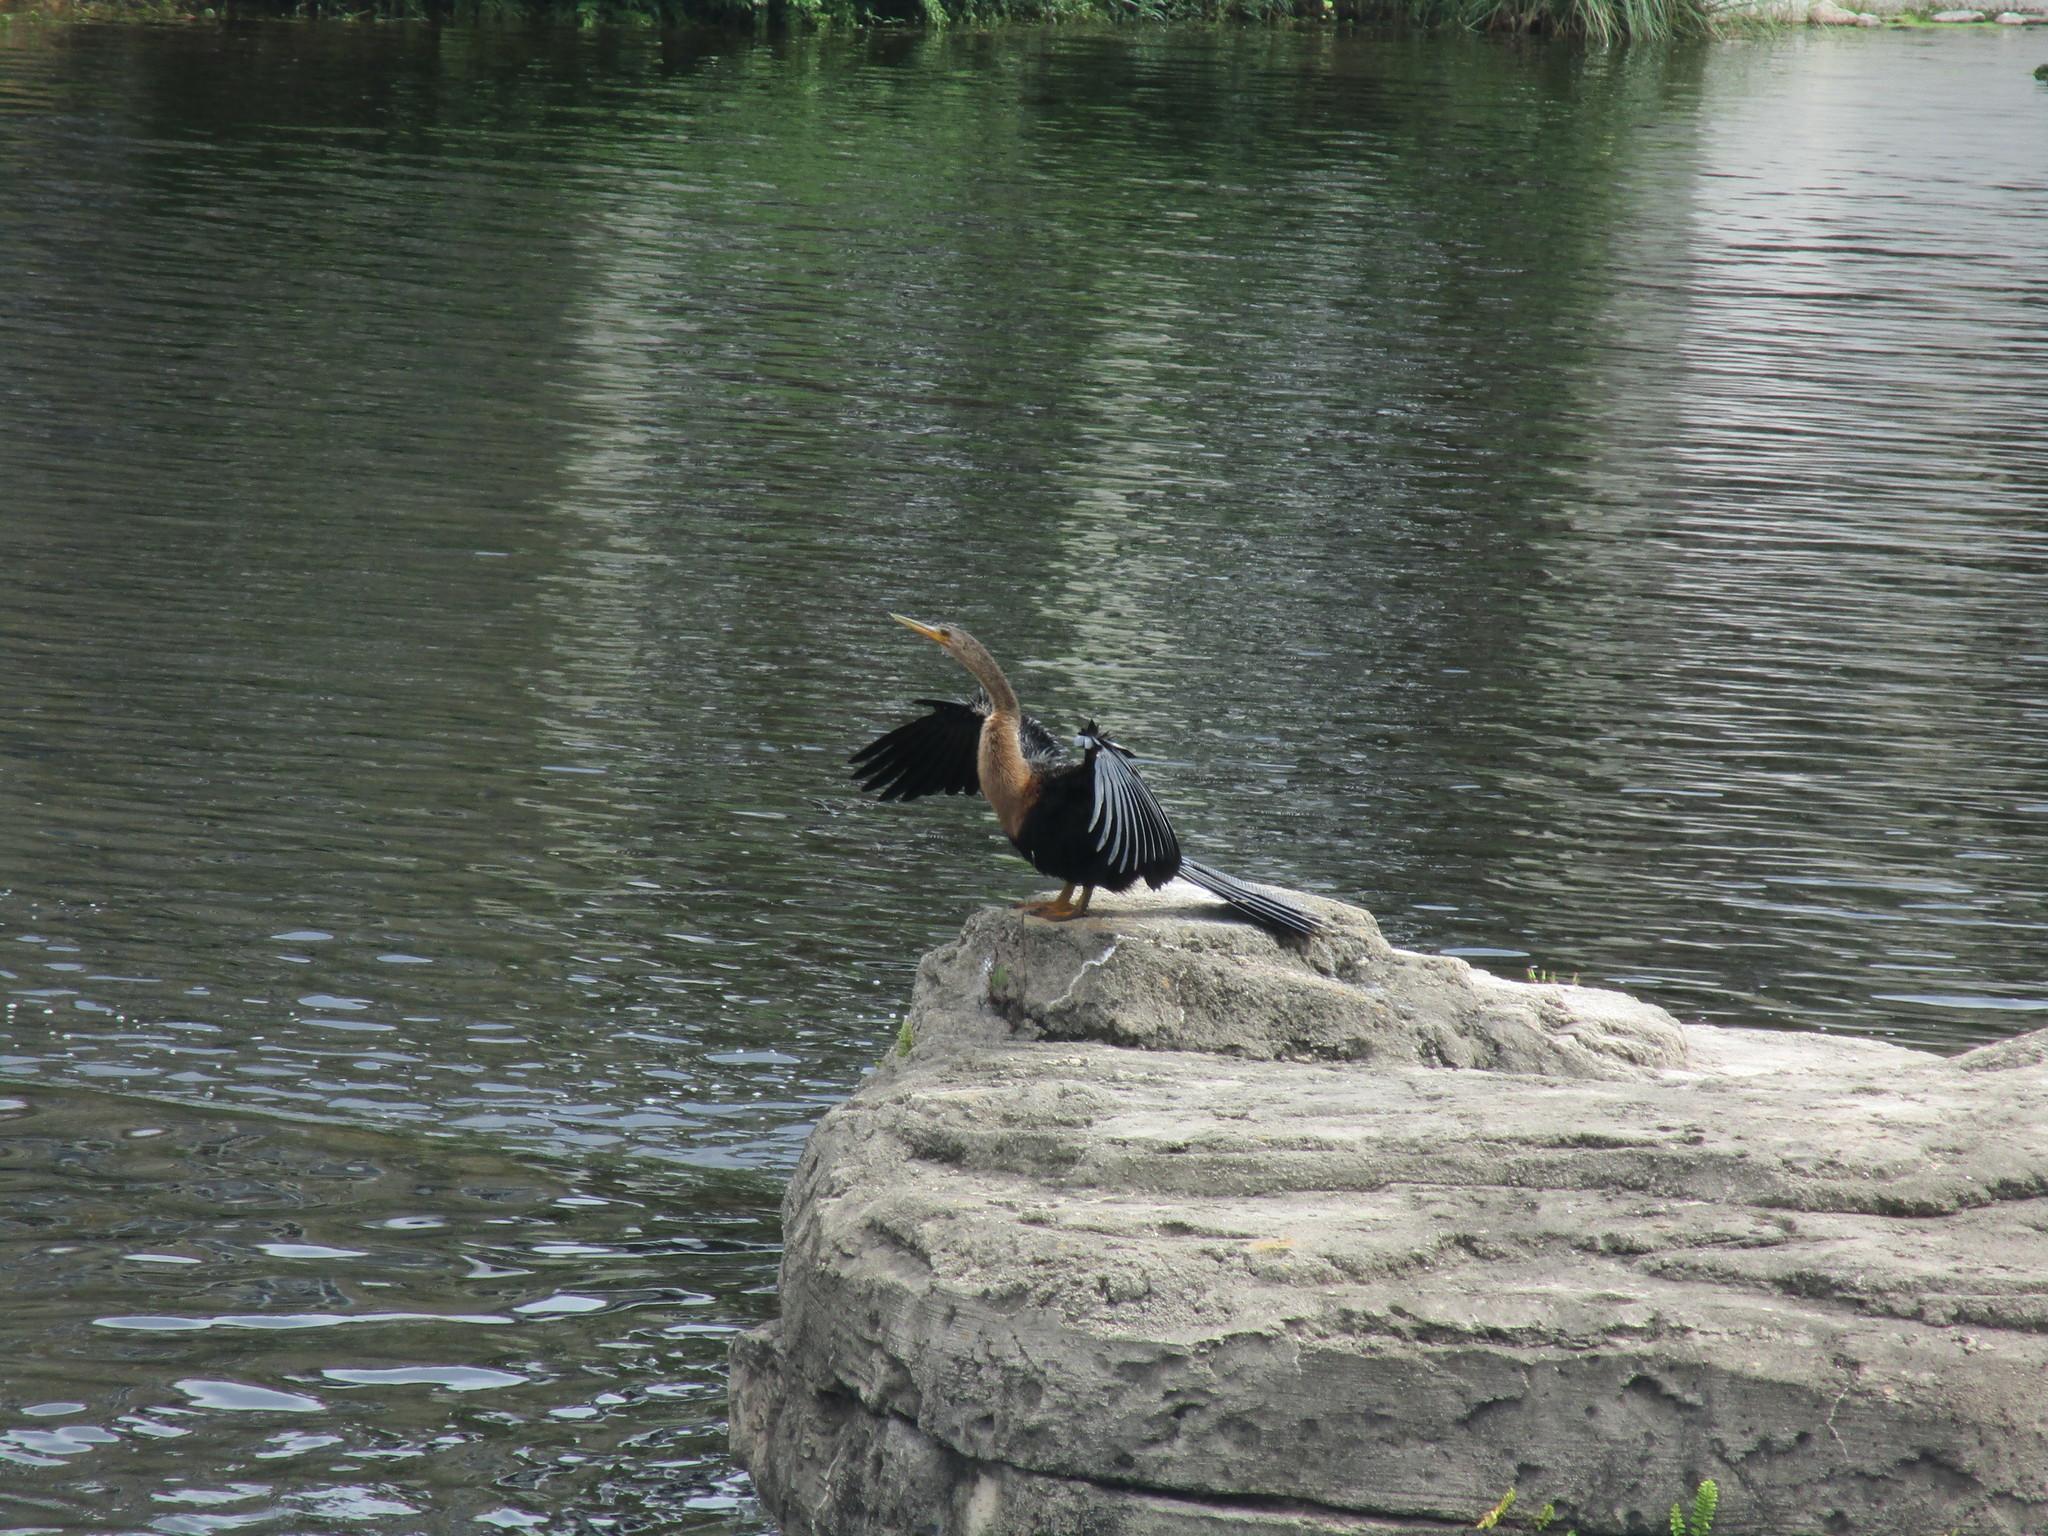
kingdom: Animalia
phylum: Chordata
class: Aves
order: Suliformes
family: Anhingidae
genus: Anhinga
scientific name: Anhinga anhinga
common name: Anhinga
